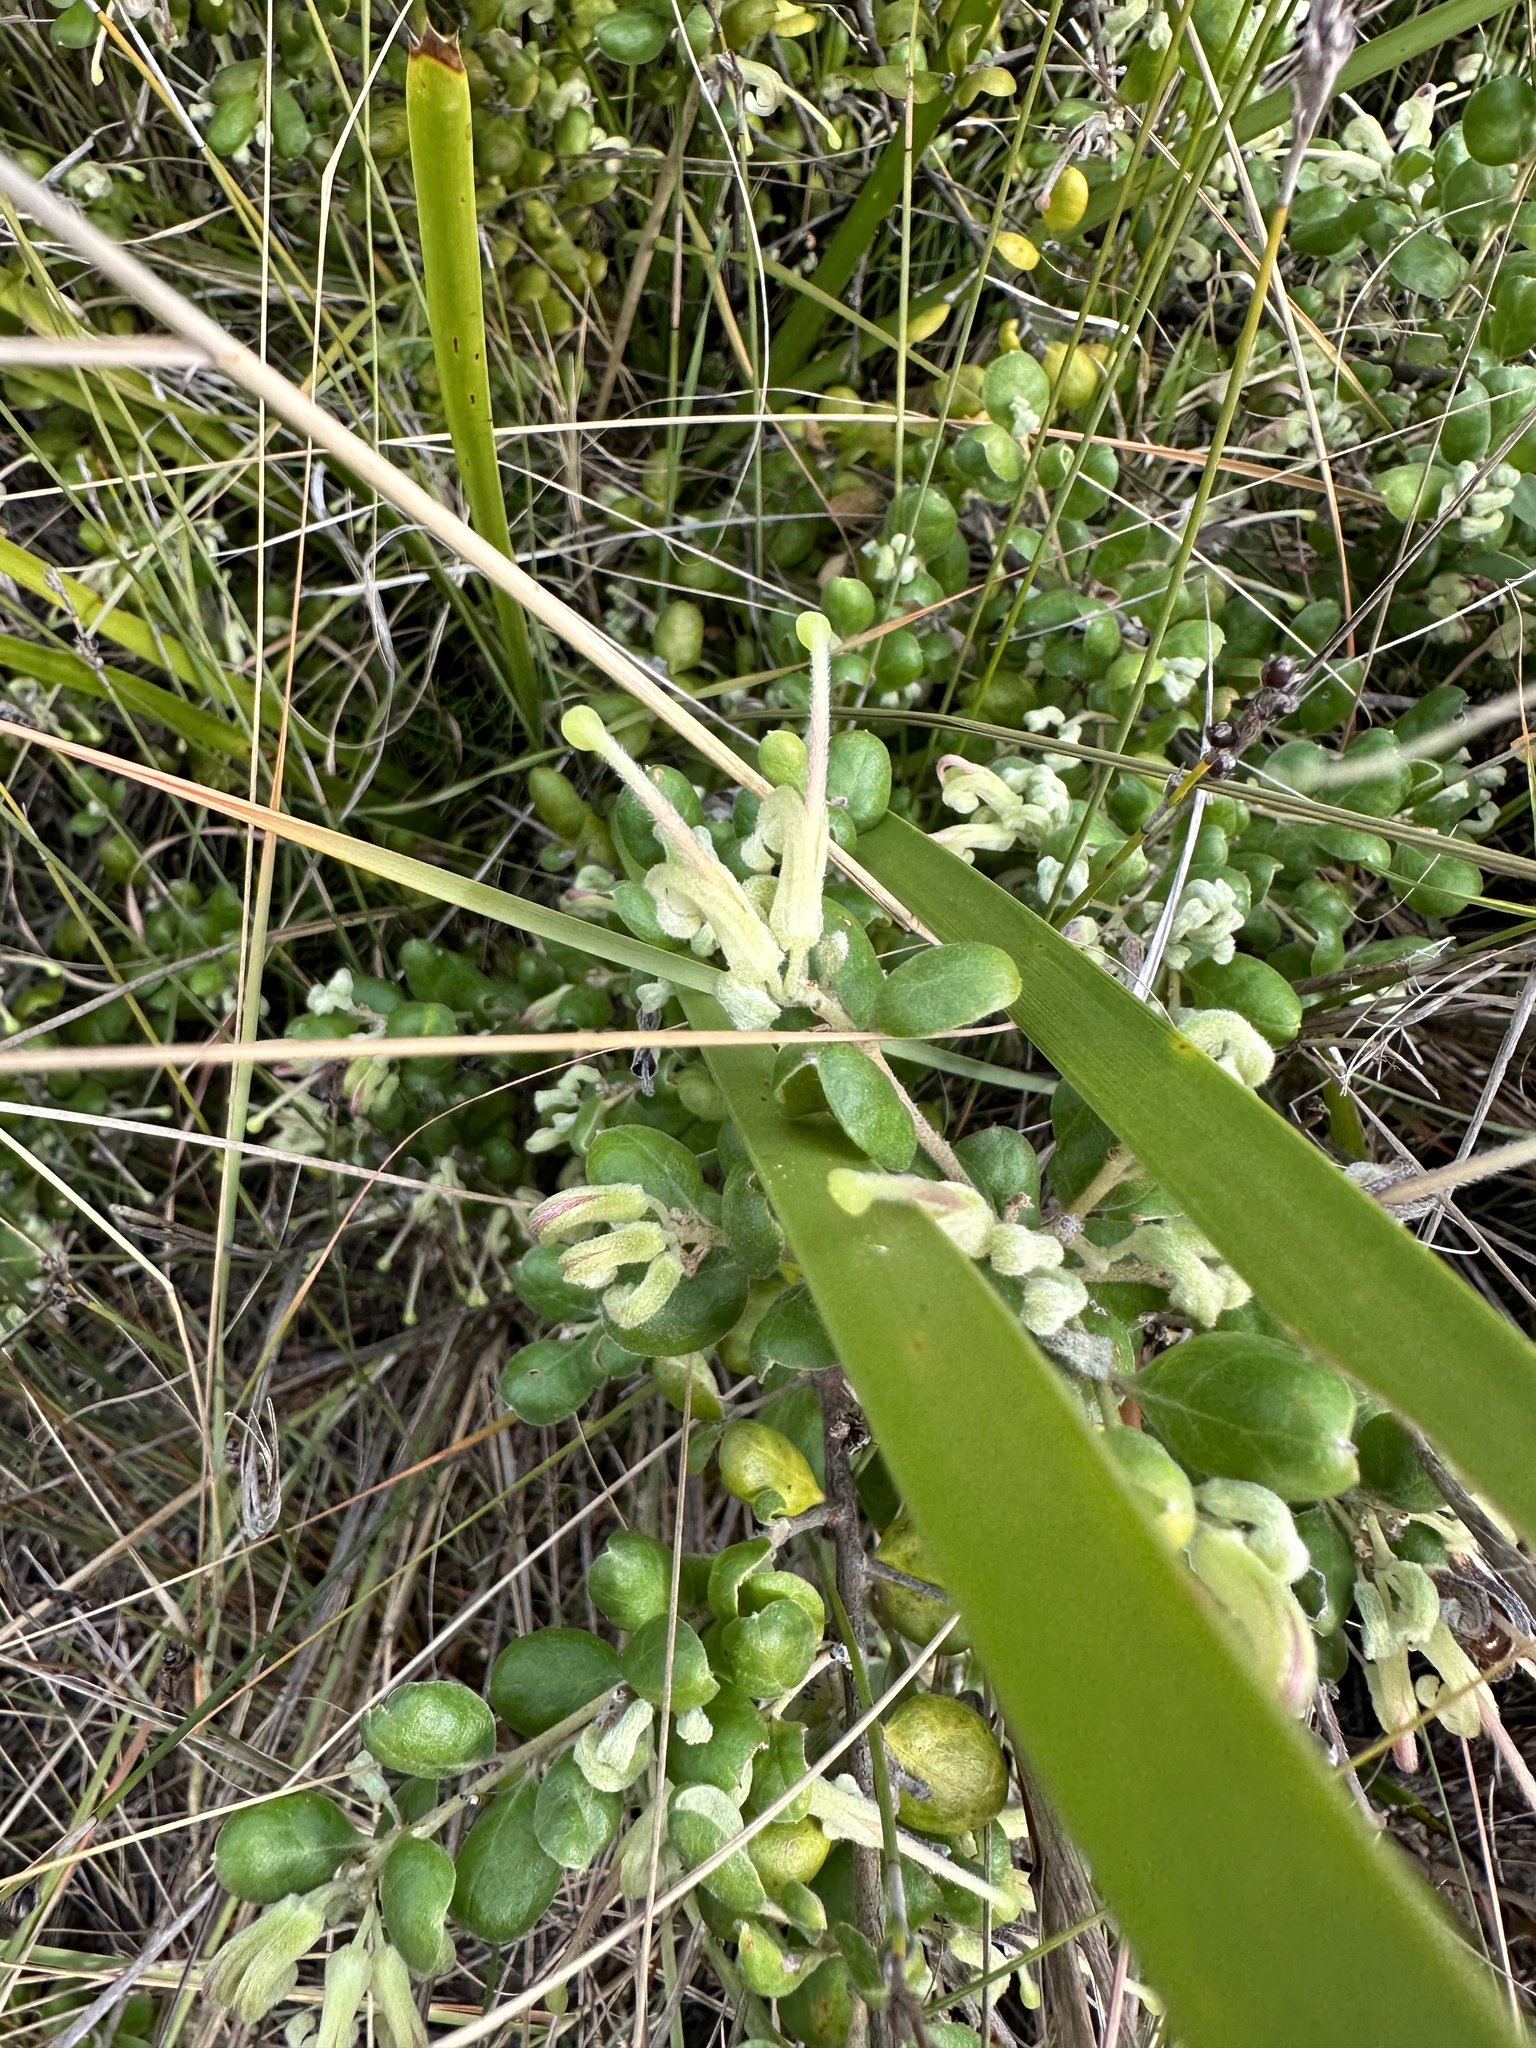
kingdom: Plantae
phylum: Tracheophyta
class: Magnoliopsida
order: Proteales
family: Proteaceae
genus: Grevillea
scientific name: Grevillea mucronulata
